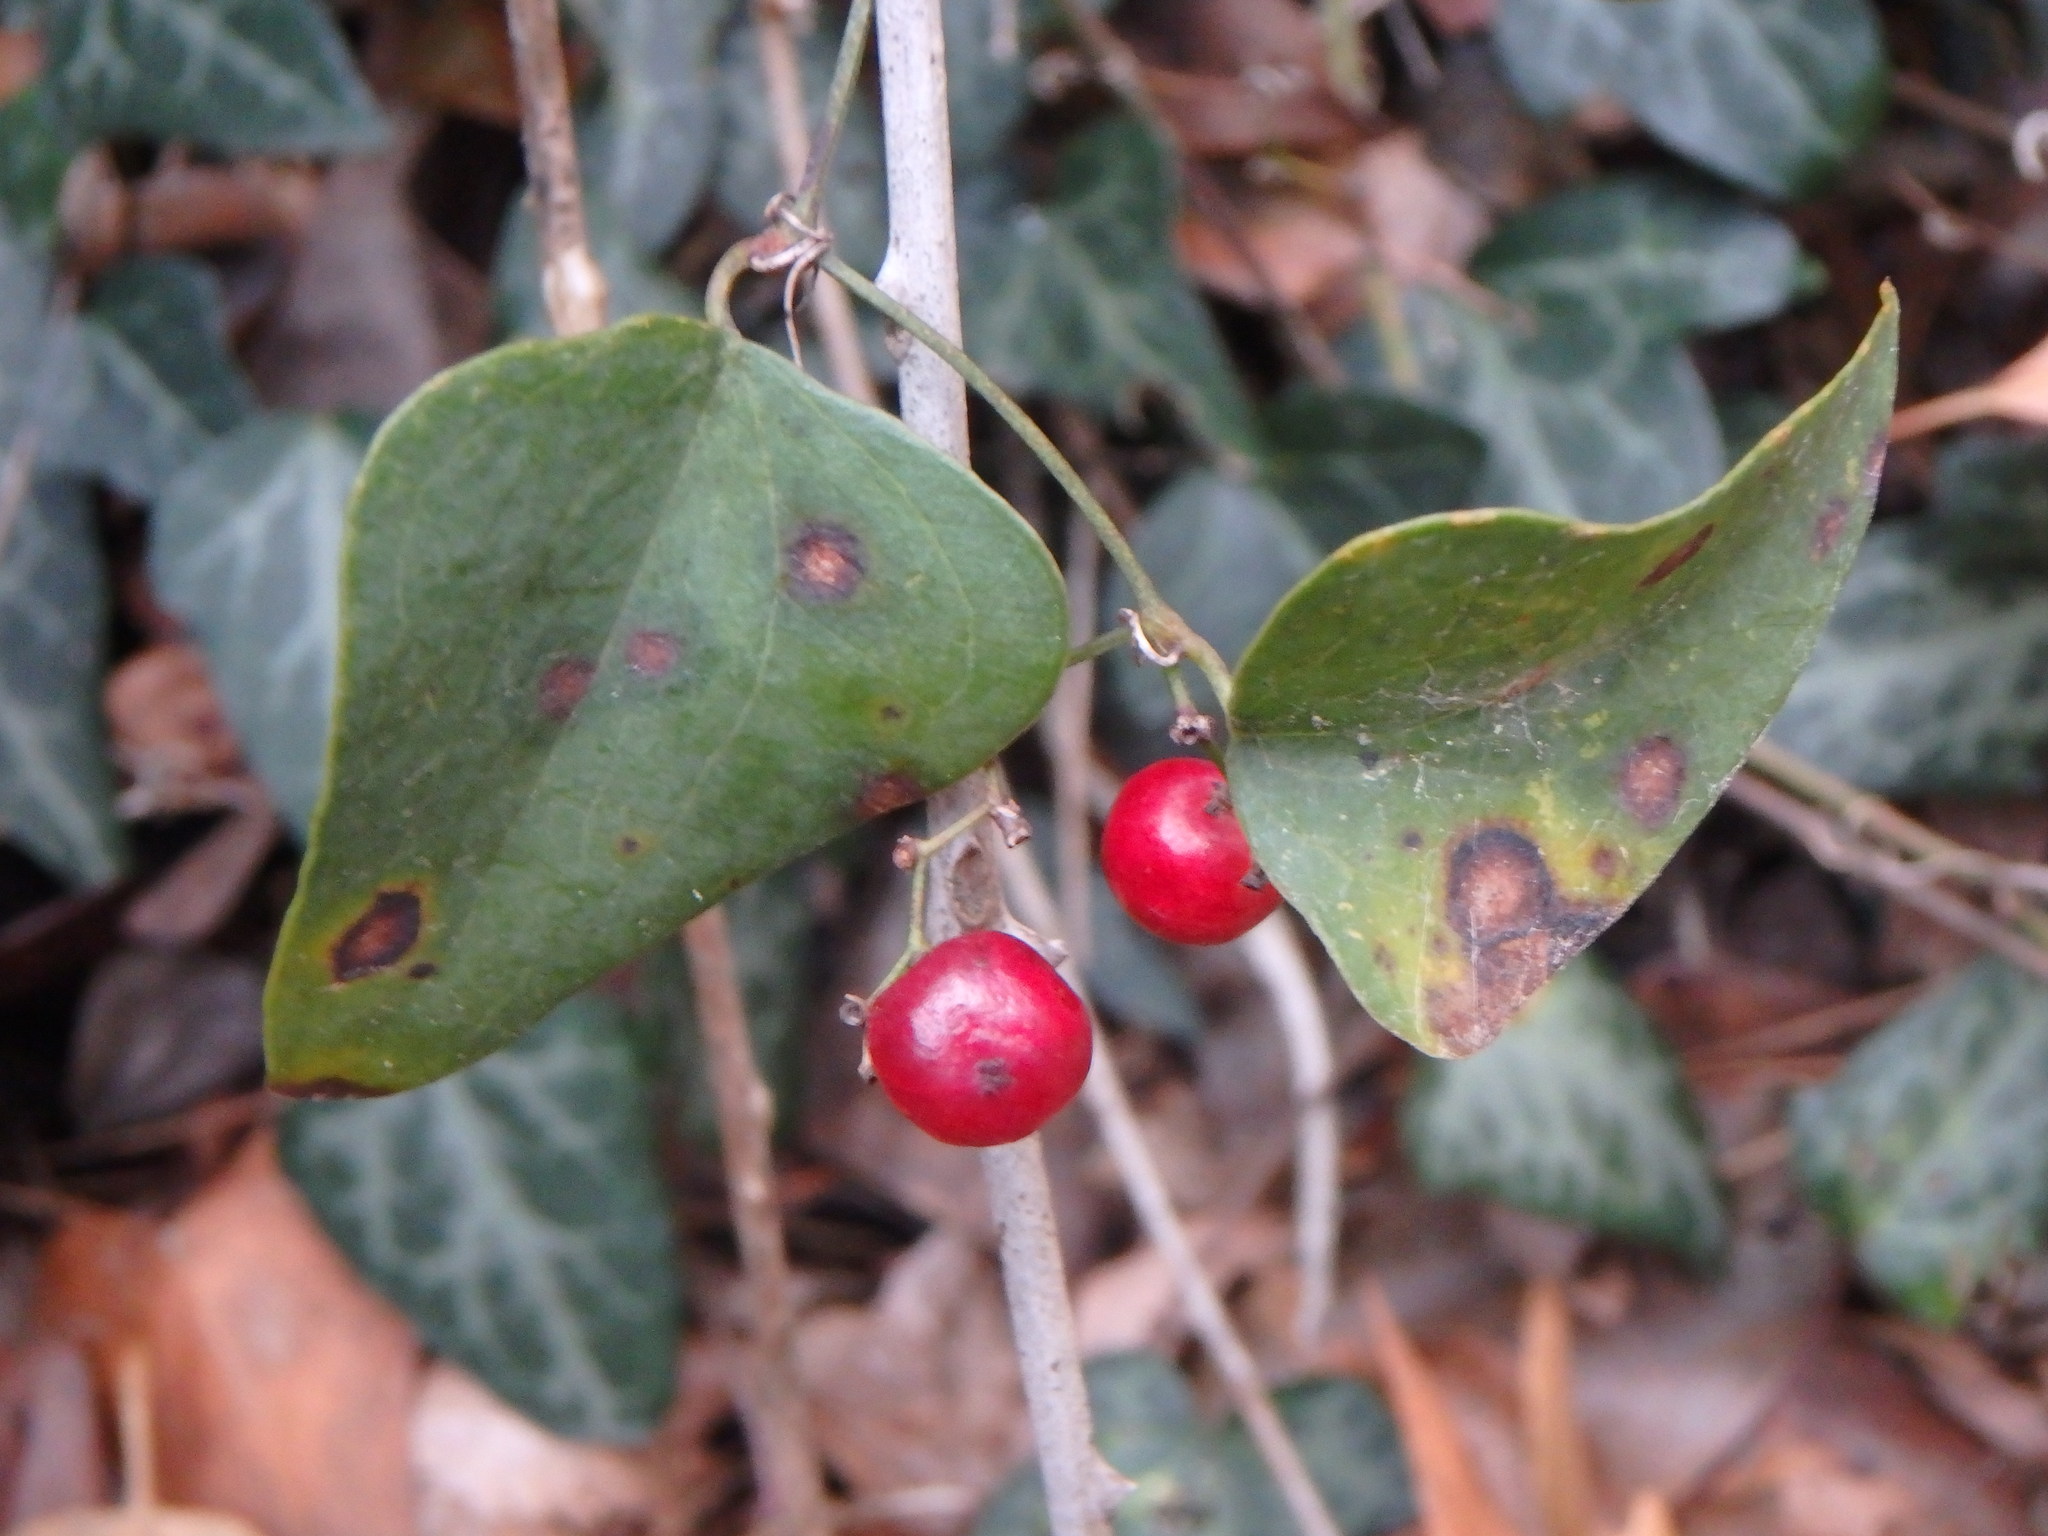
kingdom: Plantae
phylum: Tracheophyta
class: Liliopsida
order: Liliales
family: Smilacaceae
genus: Smilax
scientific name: Smilax aspera
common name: Common smilax
